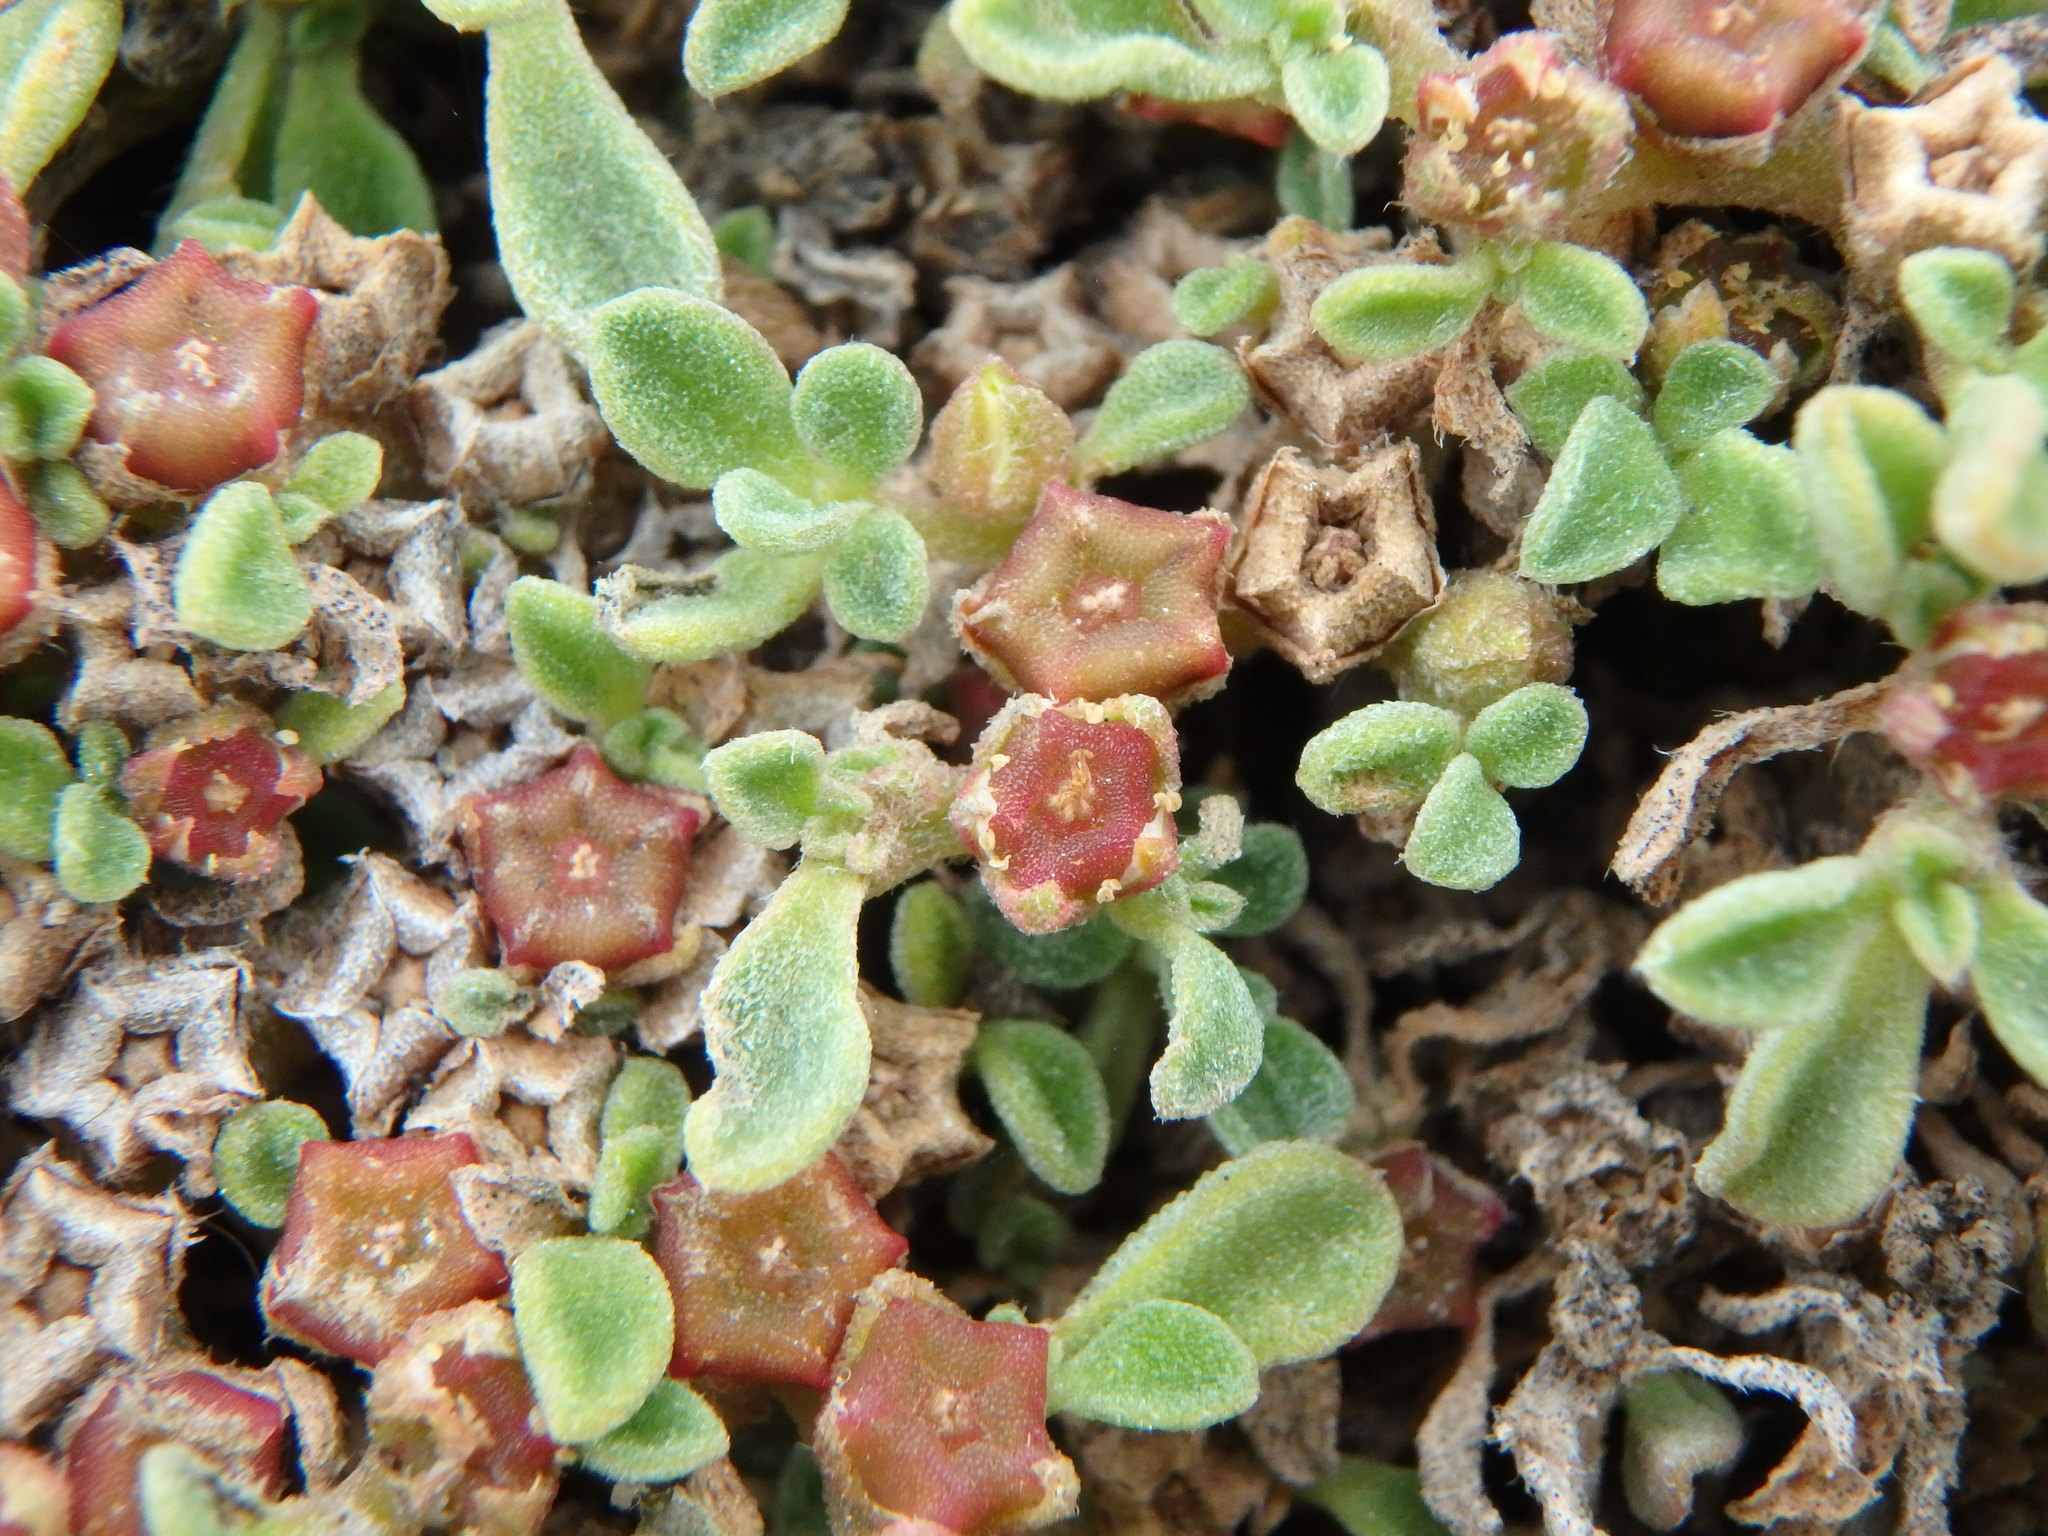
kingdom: Plantae
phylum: Tracheophyta
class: Magnoliopsida
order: Caryophyllales
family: Aizoaceae
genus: Aizoon
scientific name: Aizoon canariense
